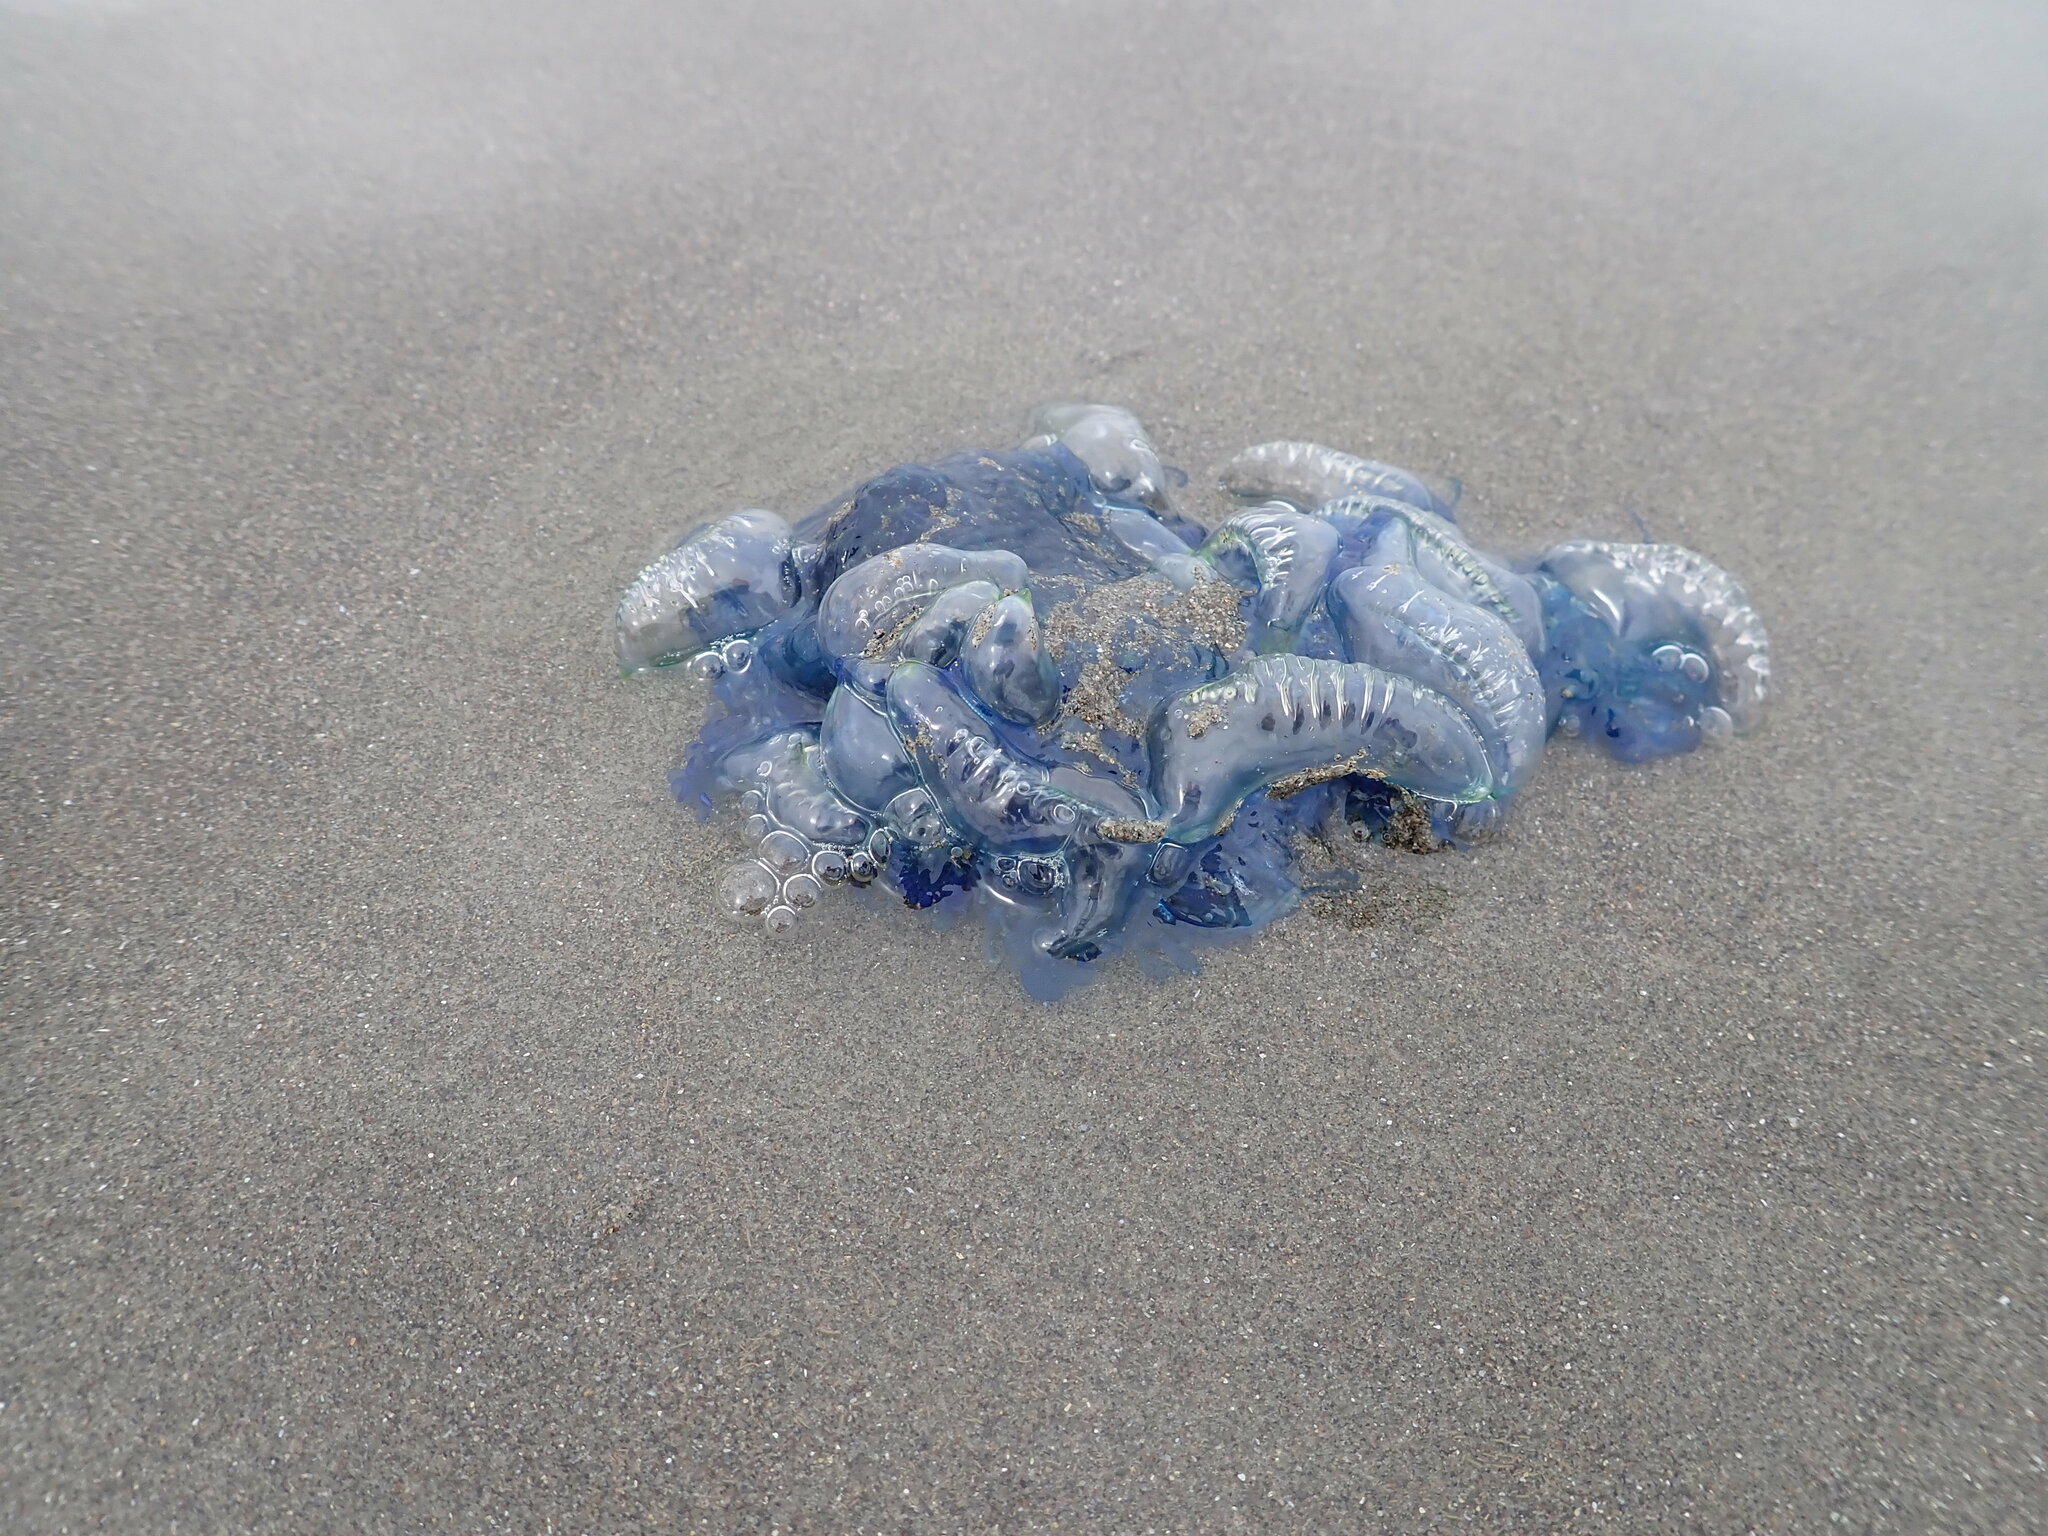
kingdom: Animalia
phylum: Cnidaria
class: Hydrozoa
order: Siphonophorae
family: Physaliidae
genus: Physalia
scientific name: Physalia physalis
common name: Portuguese man-of-war
